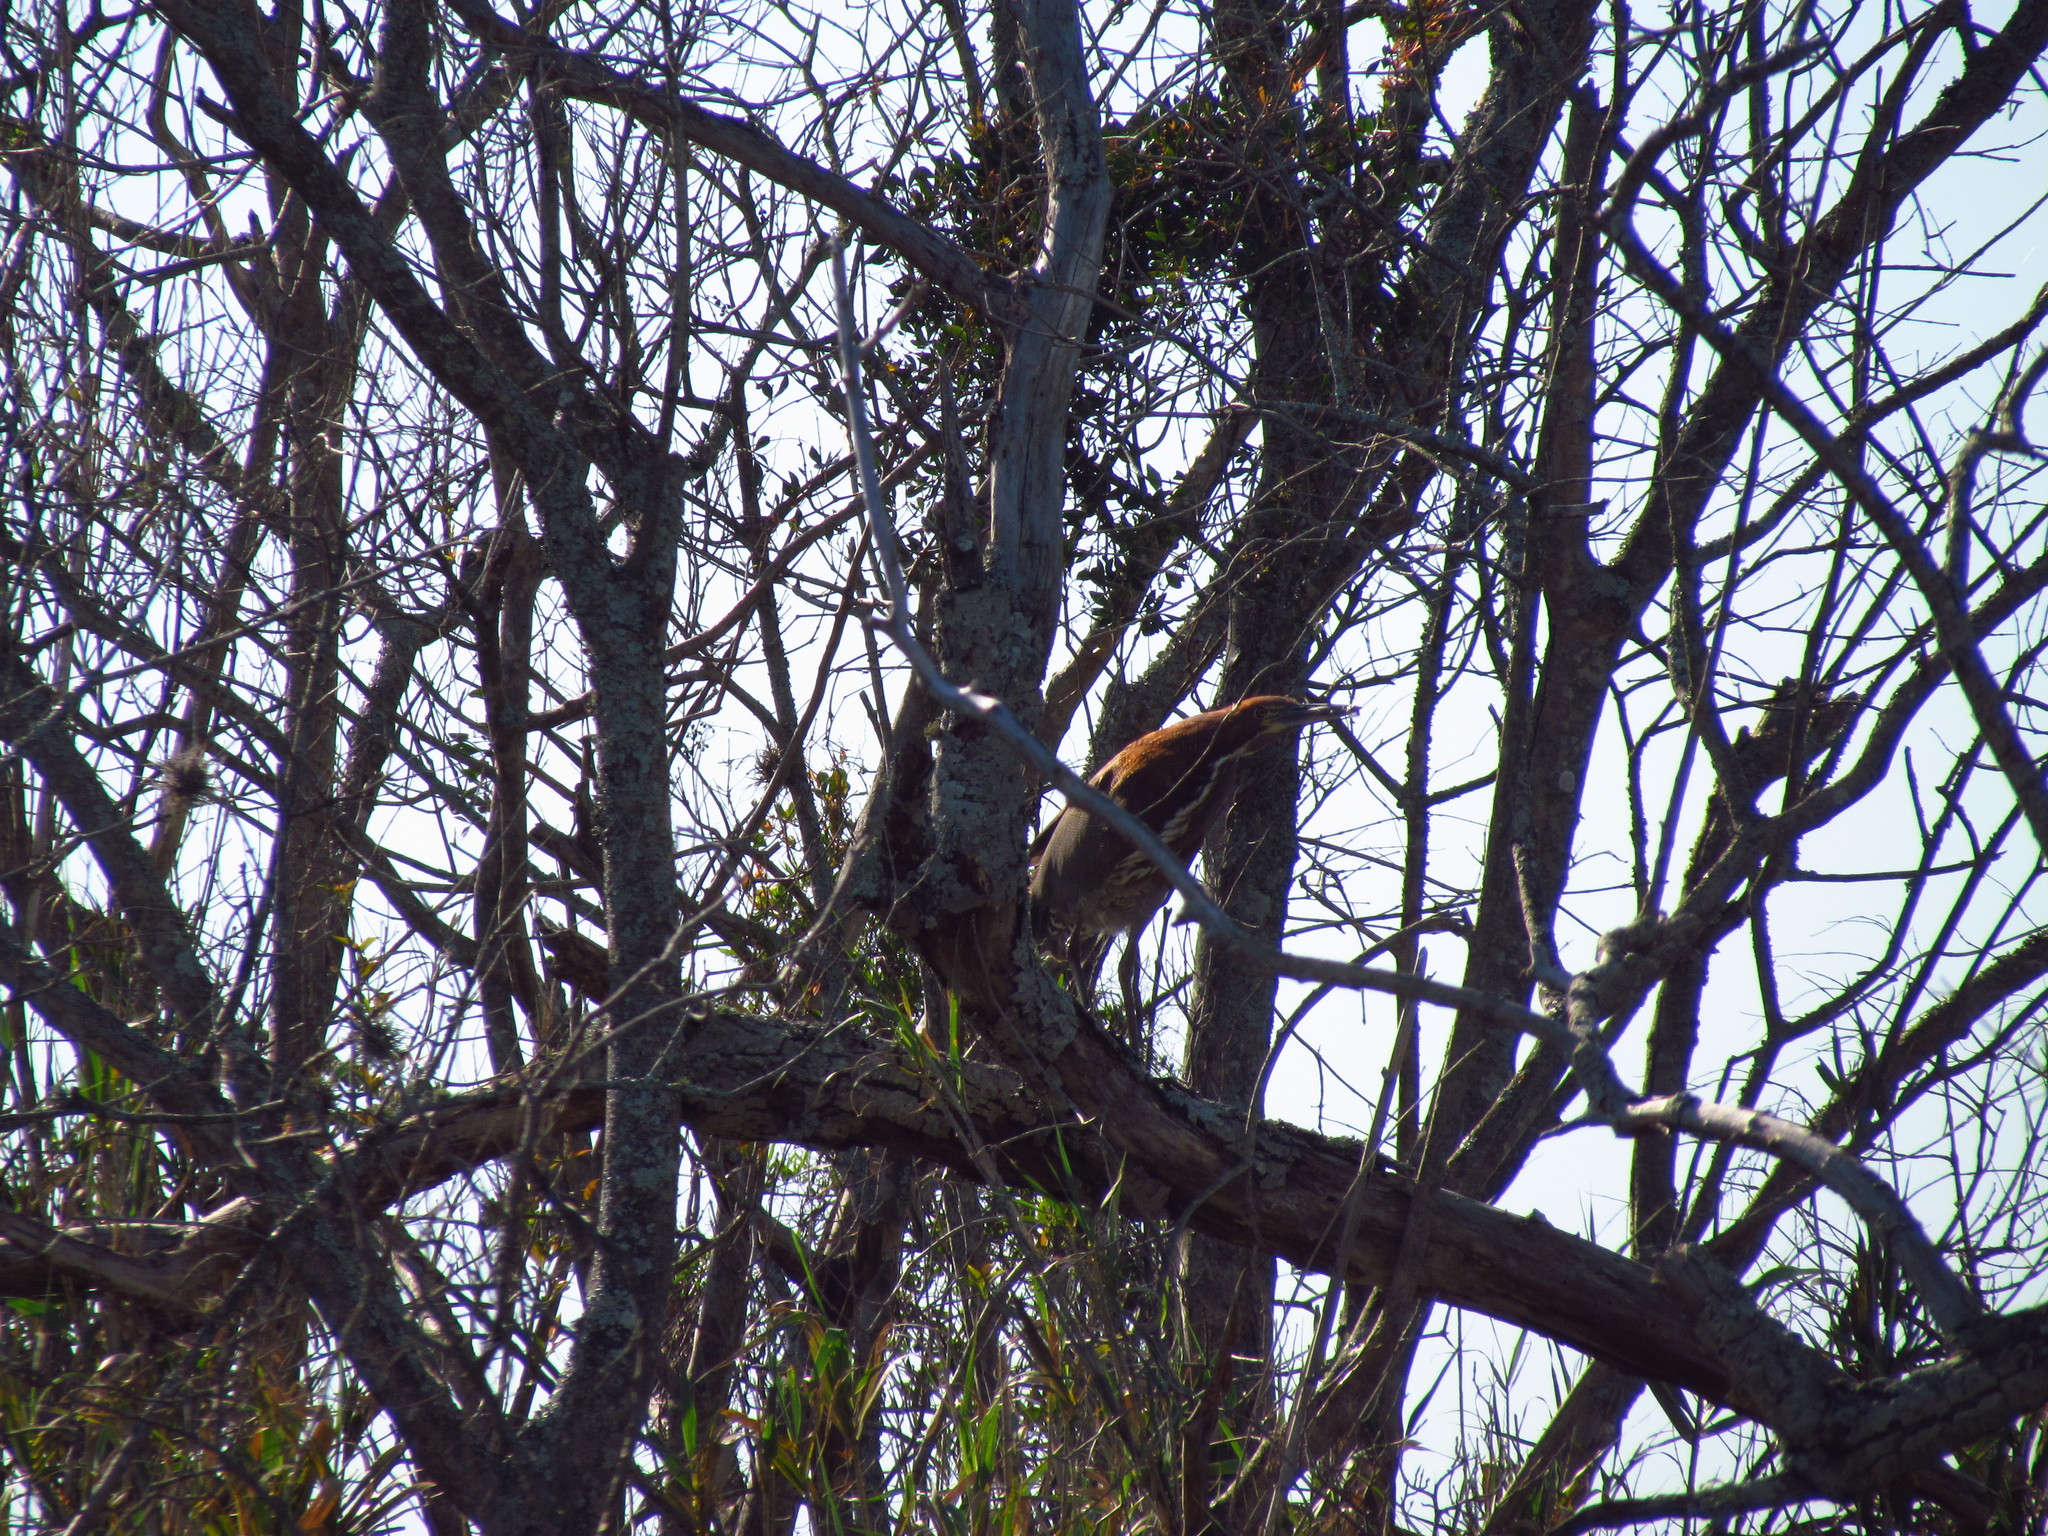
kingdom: Animalia
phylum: Chordata
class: Aves
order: Pelecaniformes
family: Ardeidae
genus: Tigrisoma
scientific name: Tigrisoma lineatum
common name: Rufescent tiger-heron
